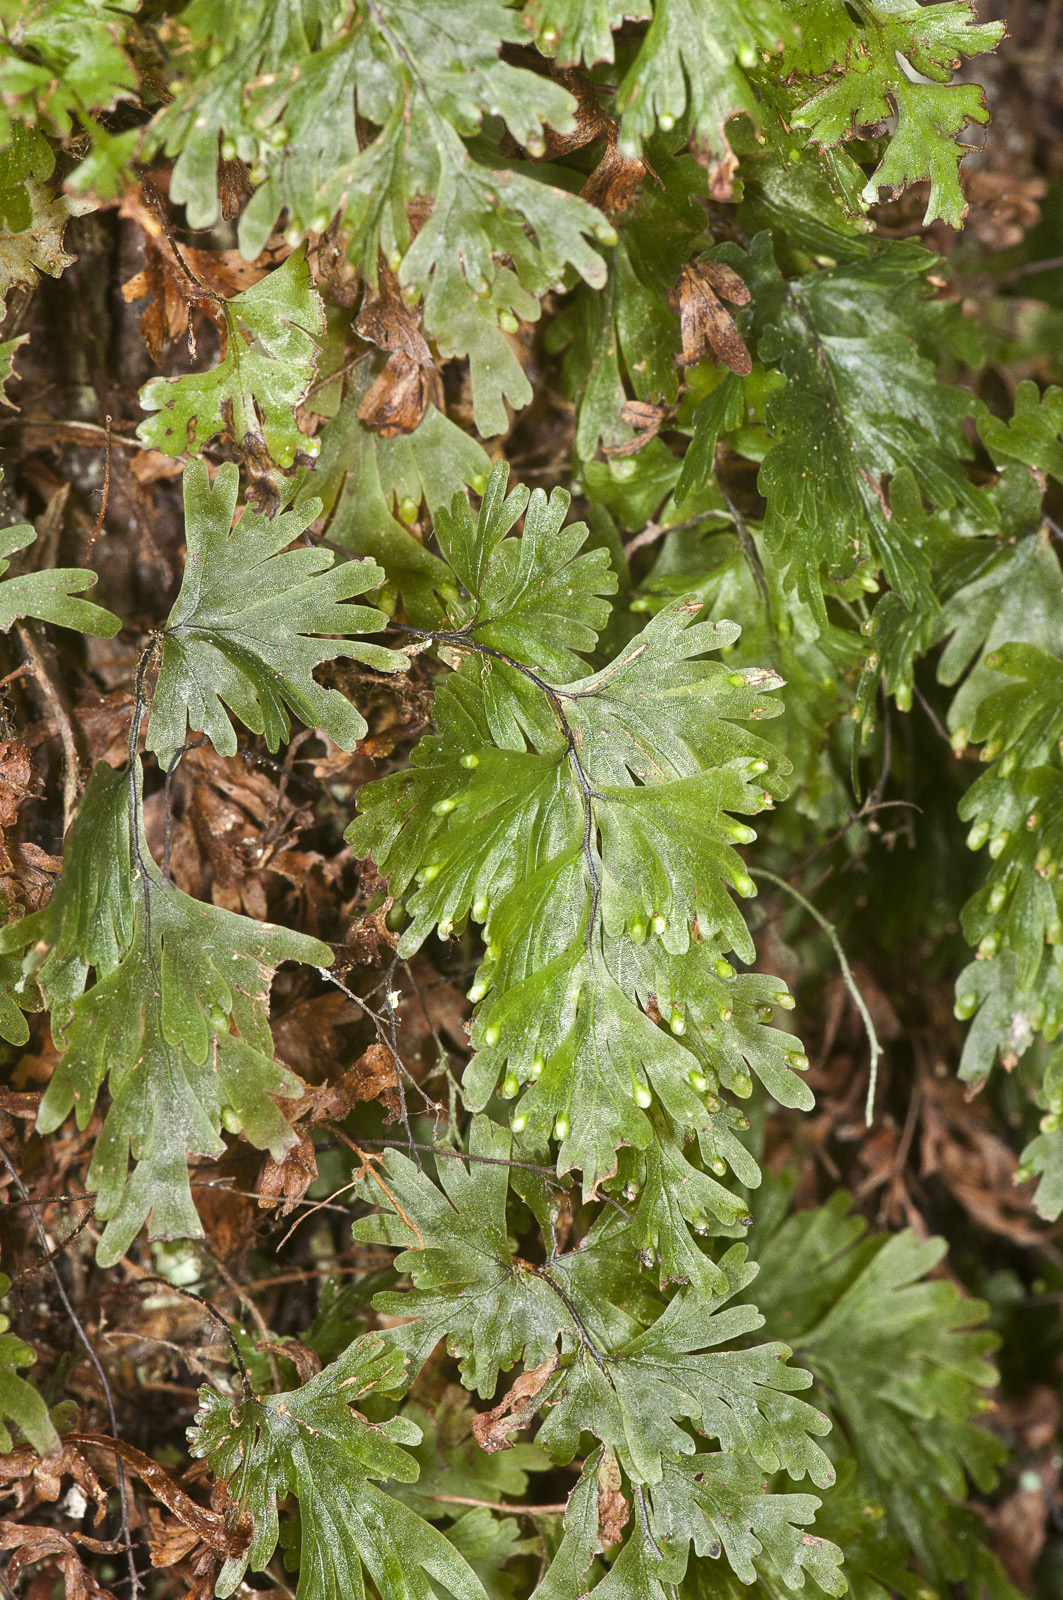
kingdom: Plantae
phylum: Tracheophyta
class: Polypodiopsida
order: Hymenophyllales
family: Hymenophyllaceae
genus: Hymenophyllum
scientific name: Hymenophyllum flabellatum
